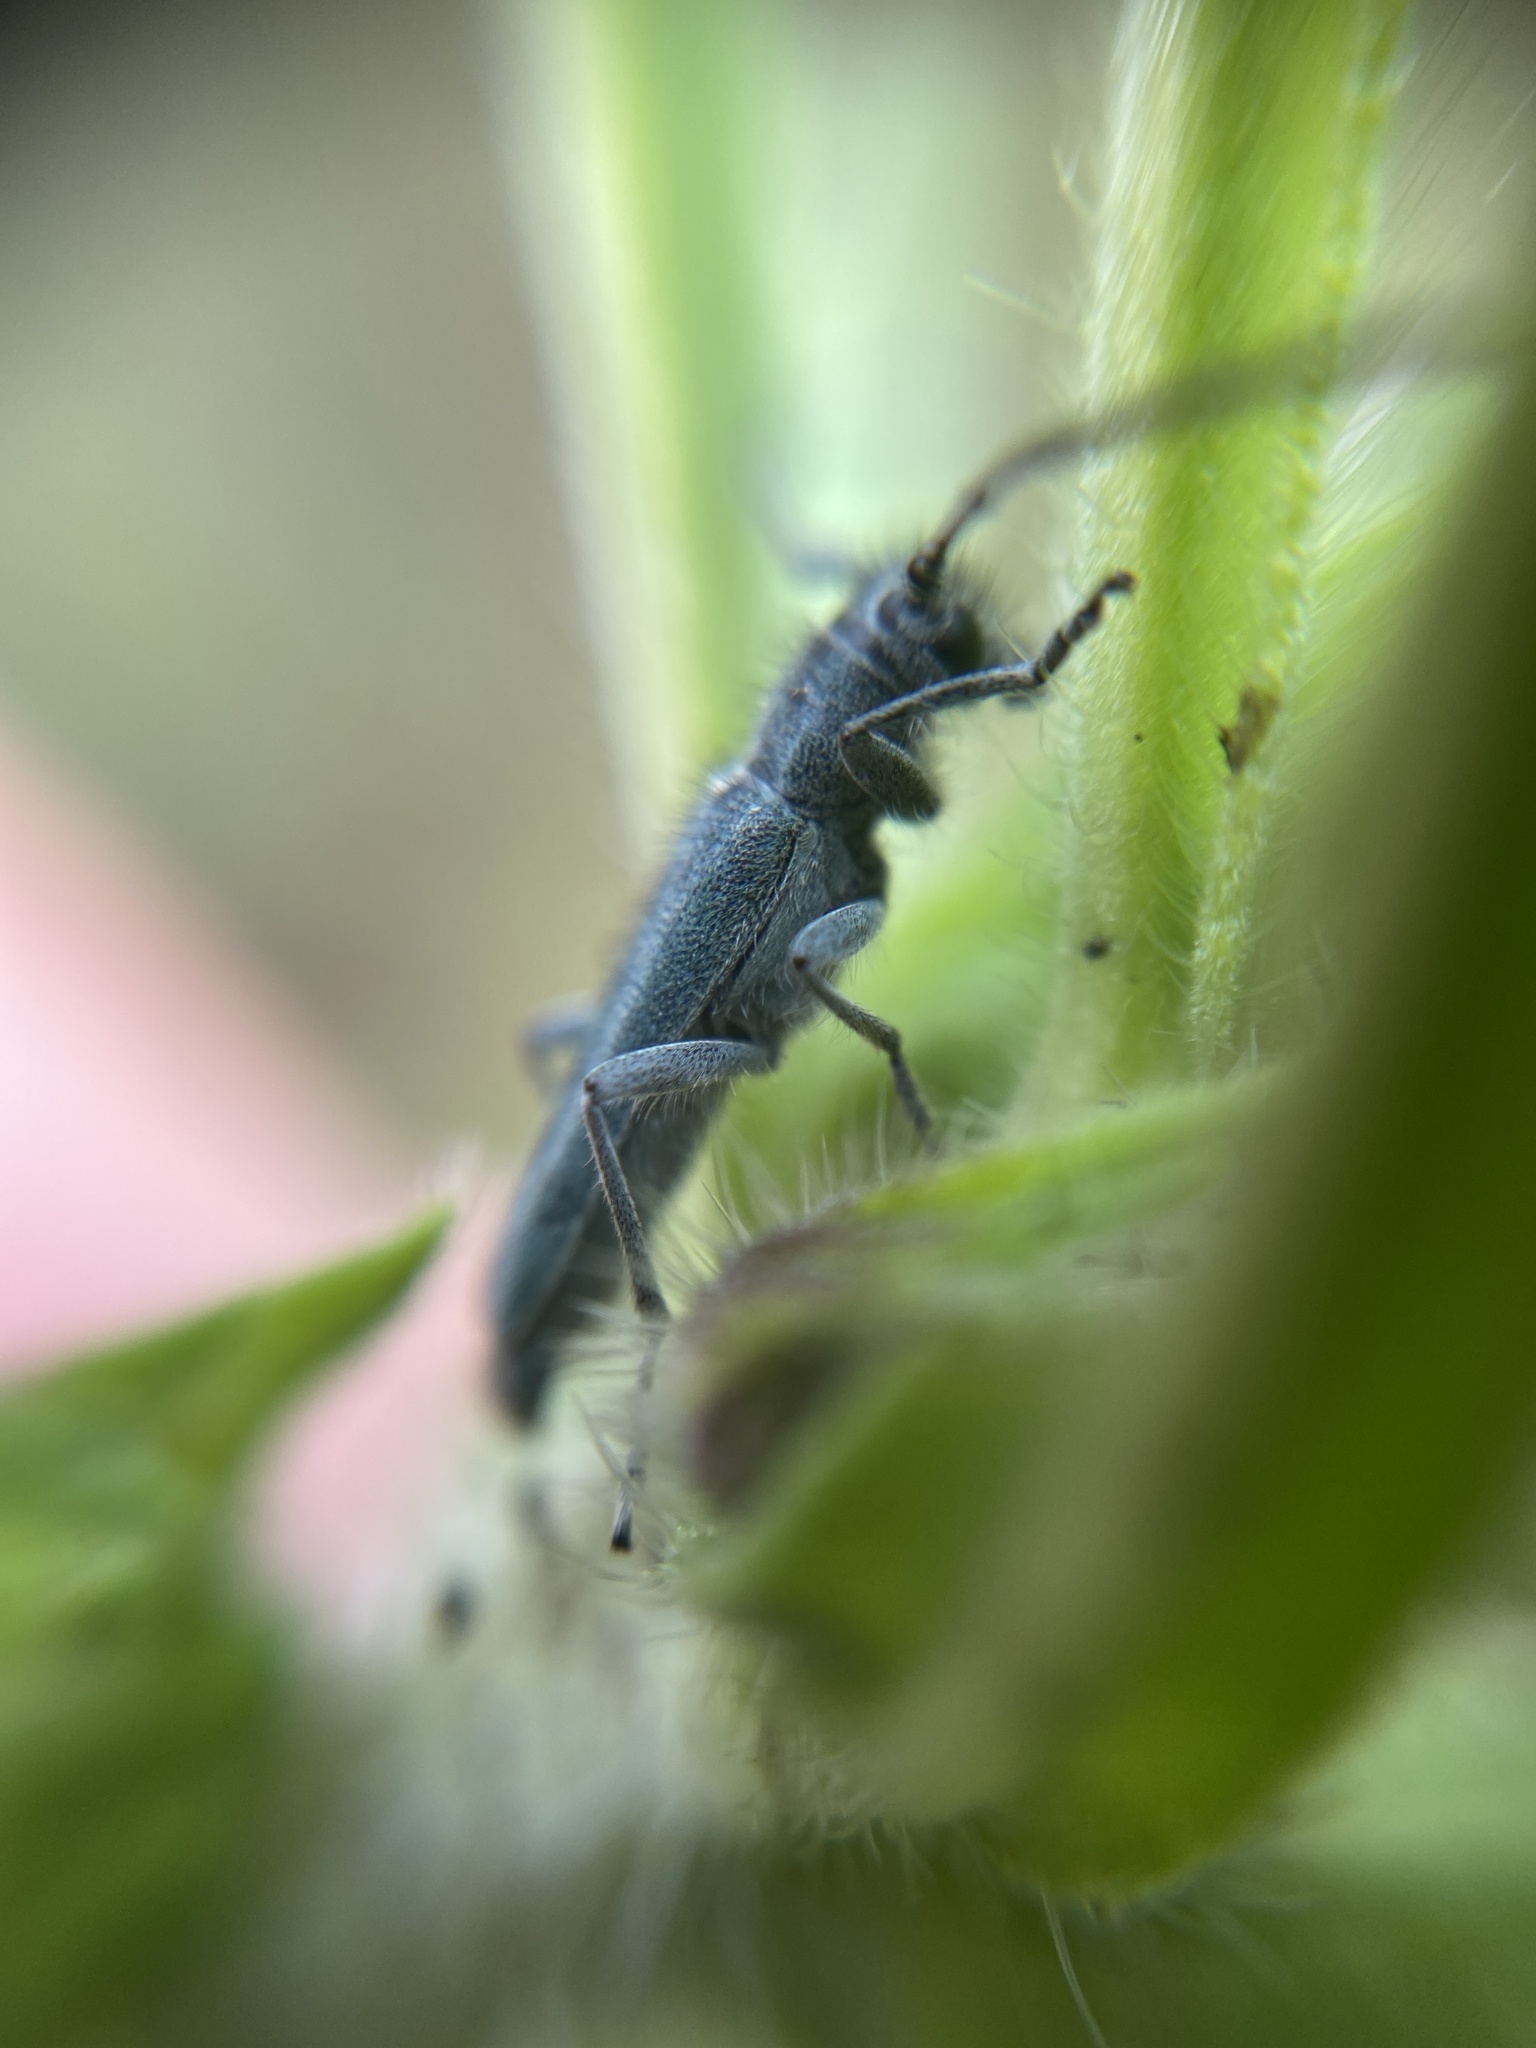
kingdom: Animalia
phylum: Arthropoda
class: Insecta
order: Coleoptera
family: Cerambycidae
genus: Phytoecia
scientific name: Phytoecia coerulescens
